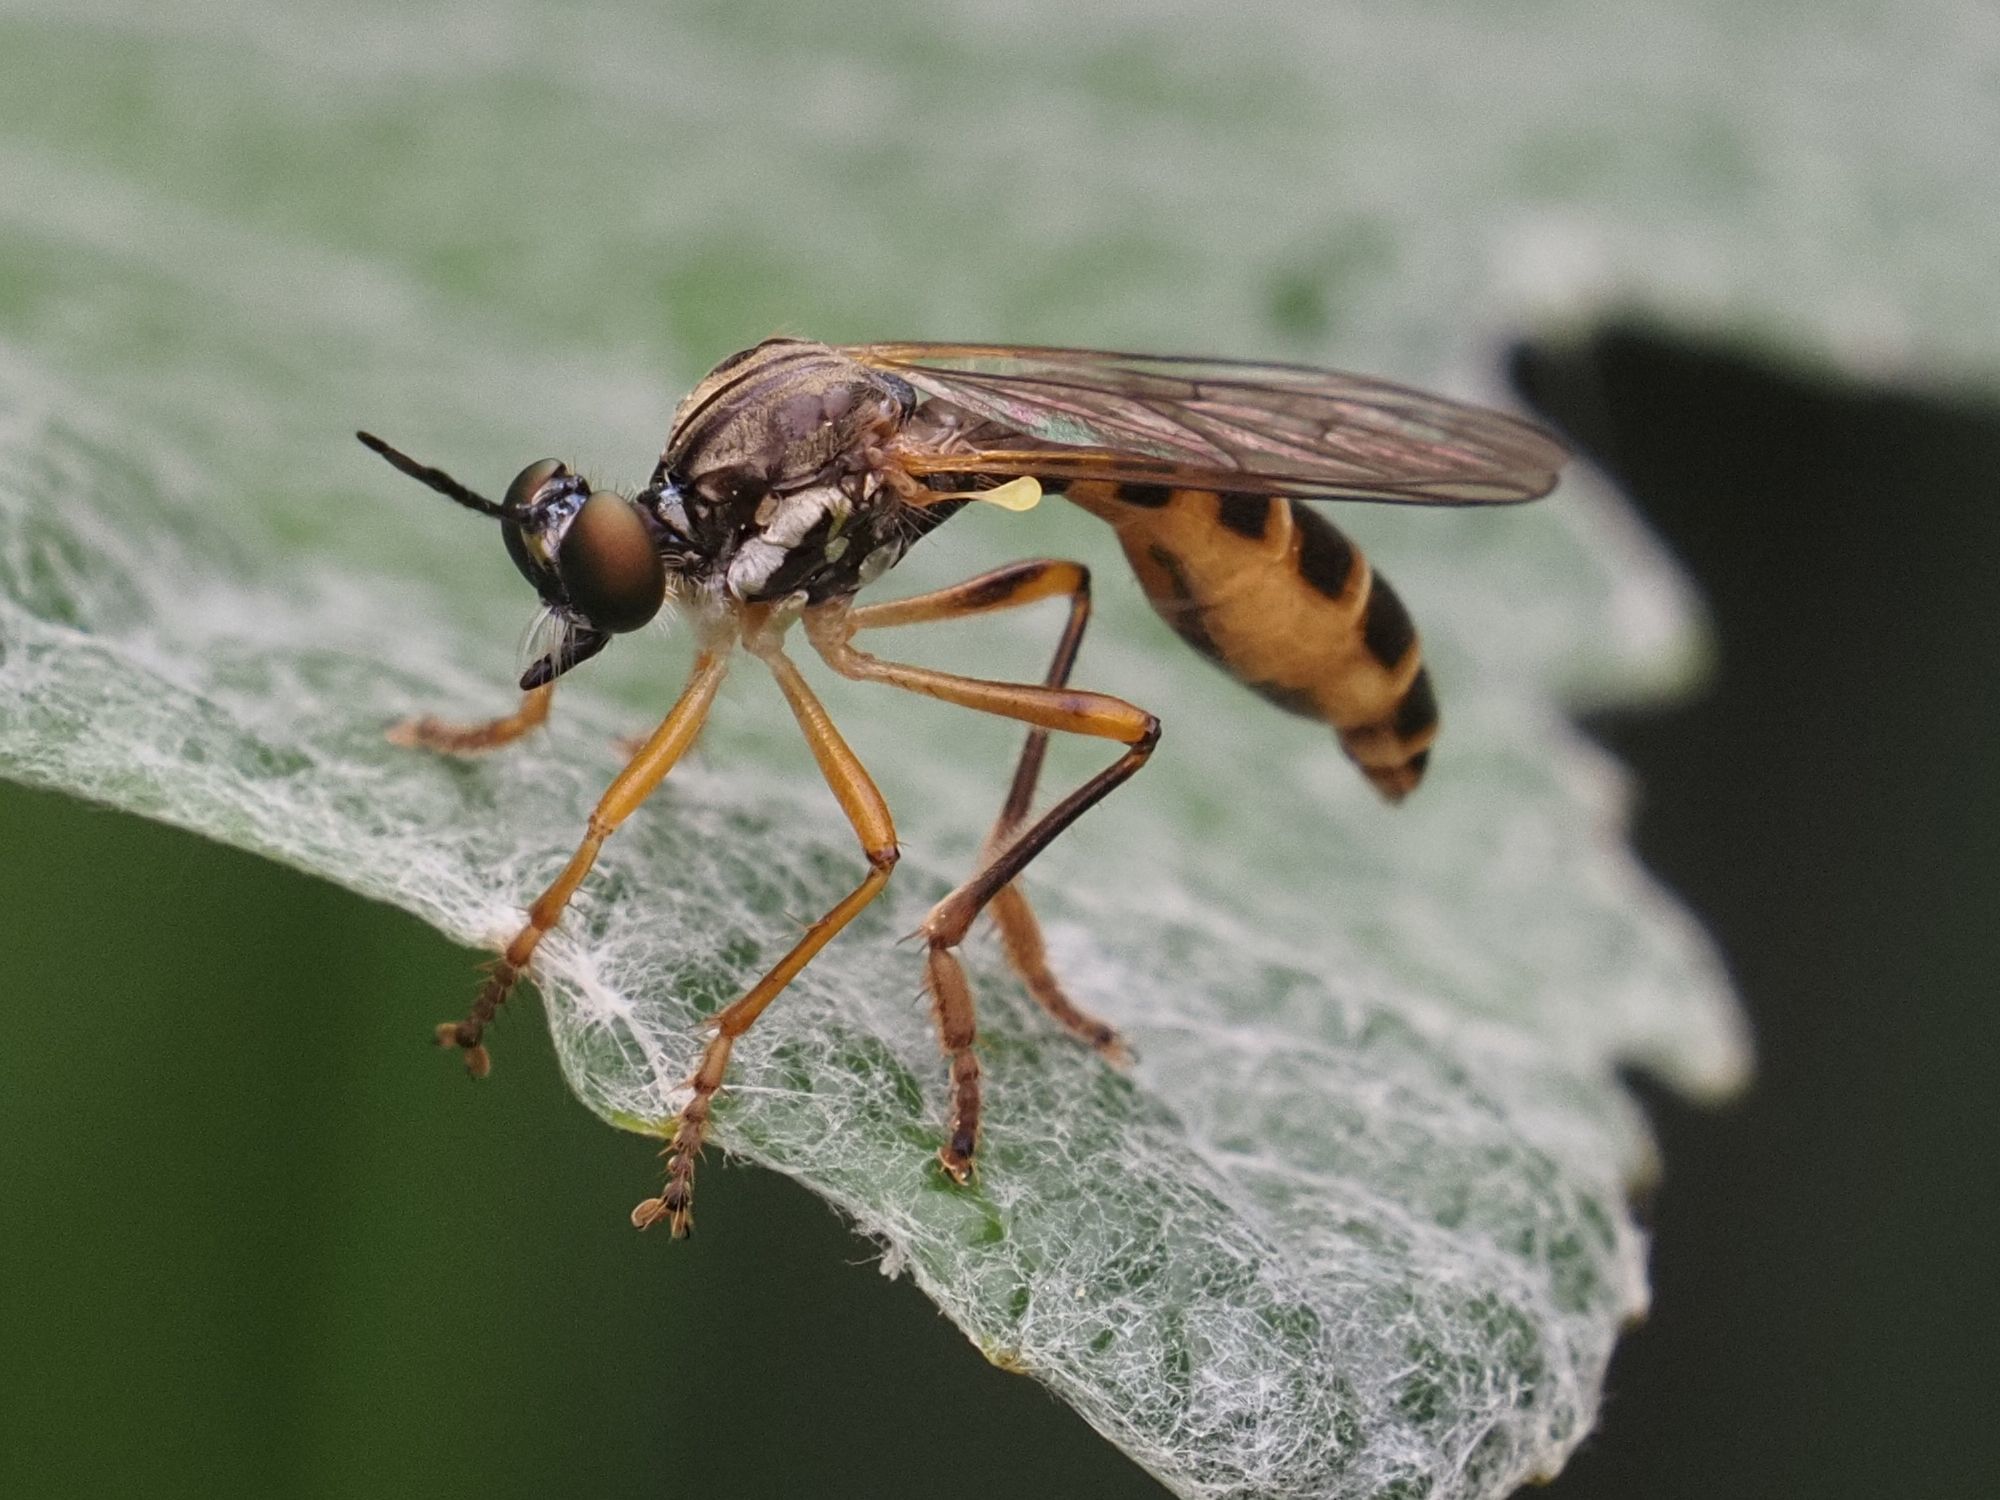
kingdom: Animalia
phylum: Arthropoda
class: Insecta
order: Diptera
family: Asilidae
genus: Dioctria
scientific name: Dioctria linearis
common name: Small yellow-legged robberfly
